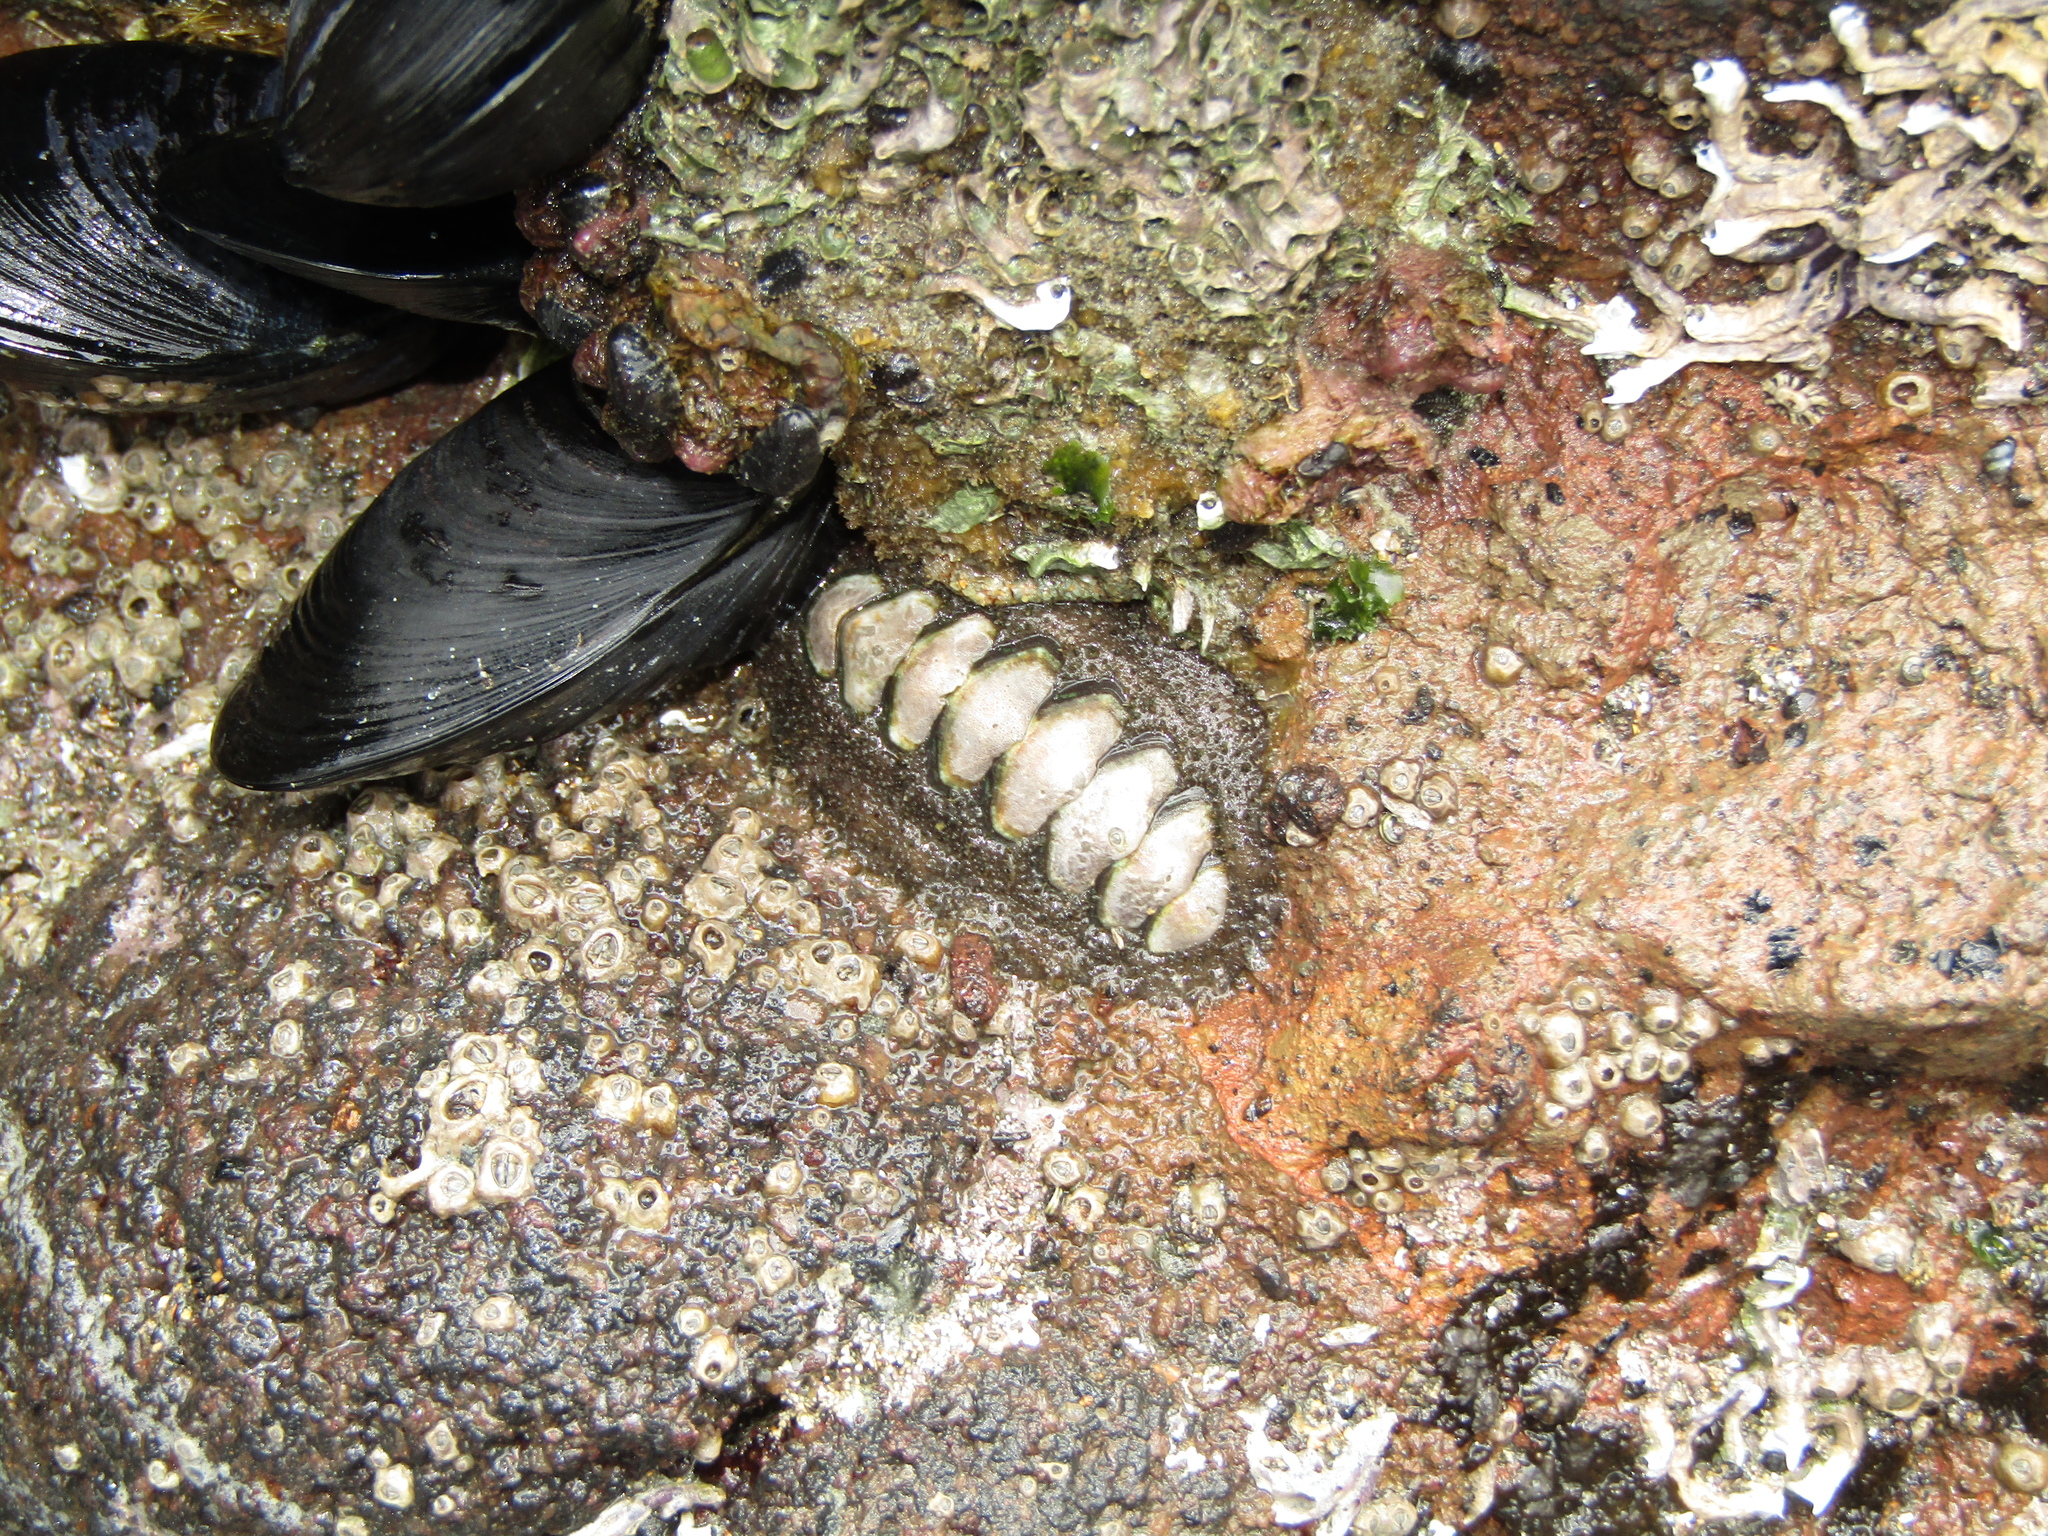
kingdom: Animalia
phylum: Mollusca
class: Polyplacophora
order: Chitonida
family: Mopaliidae
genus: Plaxiphora
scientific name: Plaxiphora obtecta
